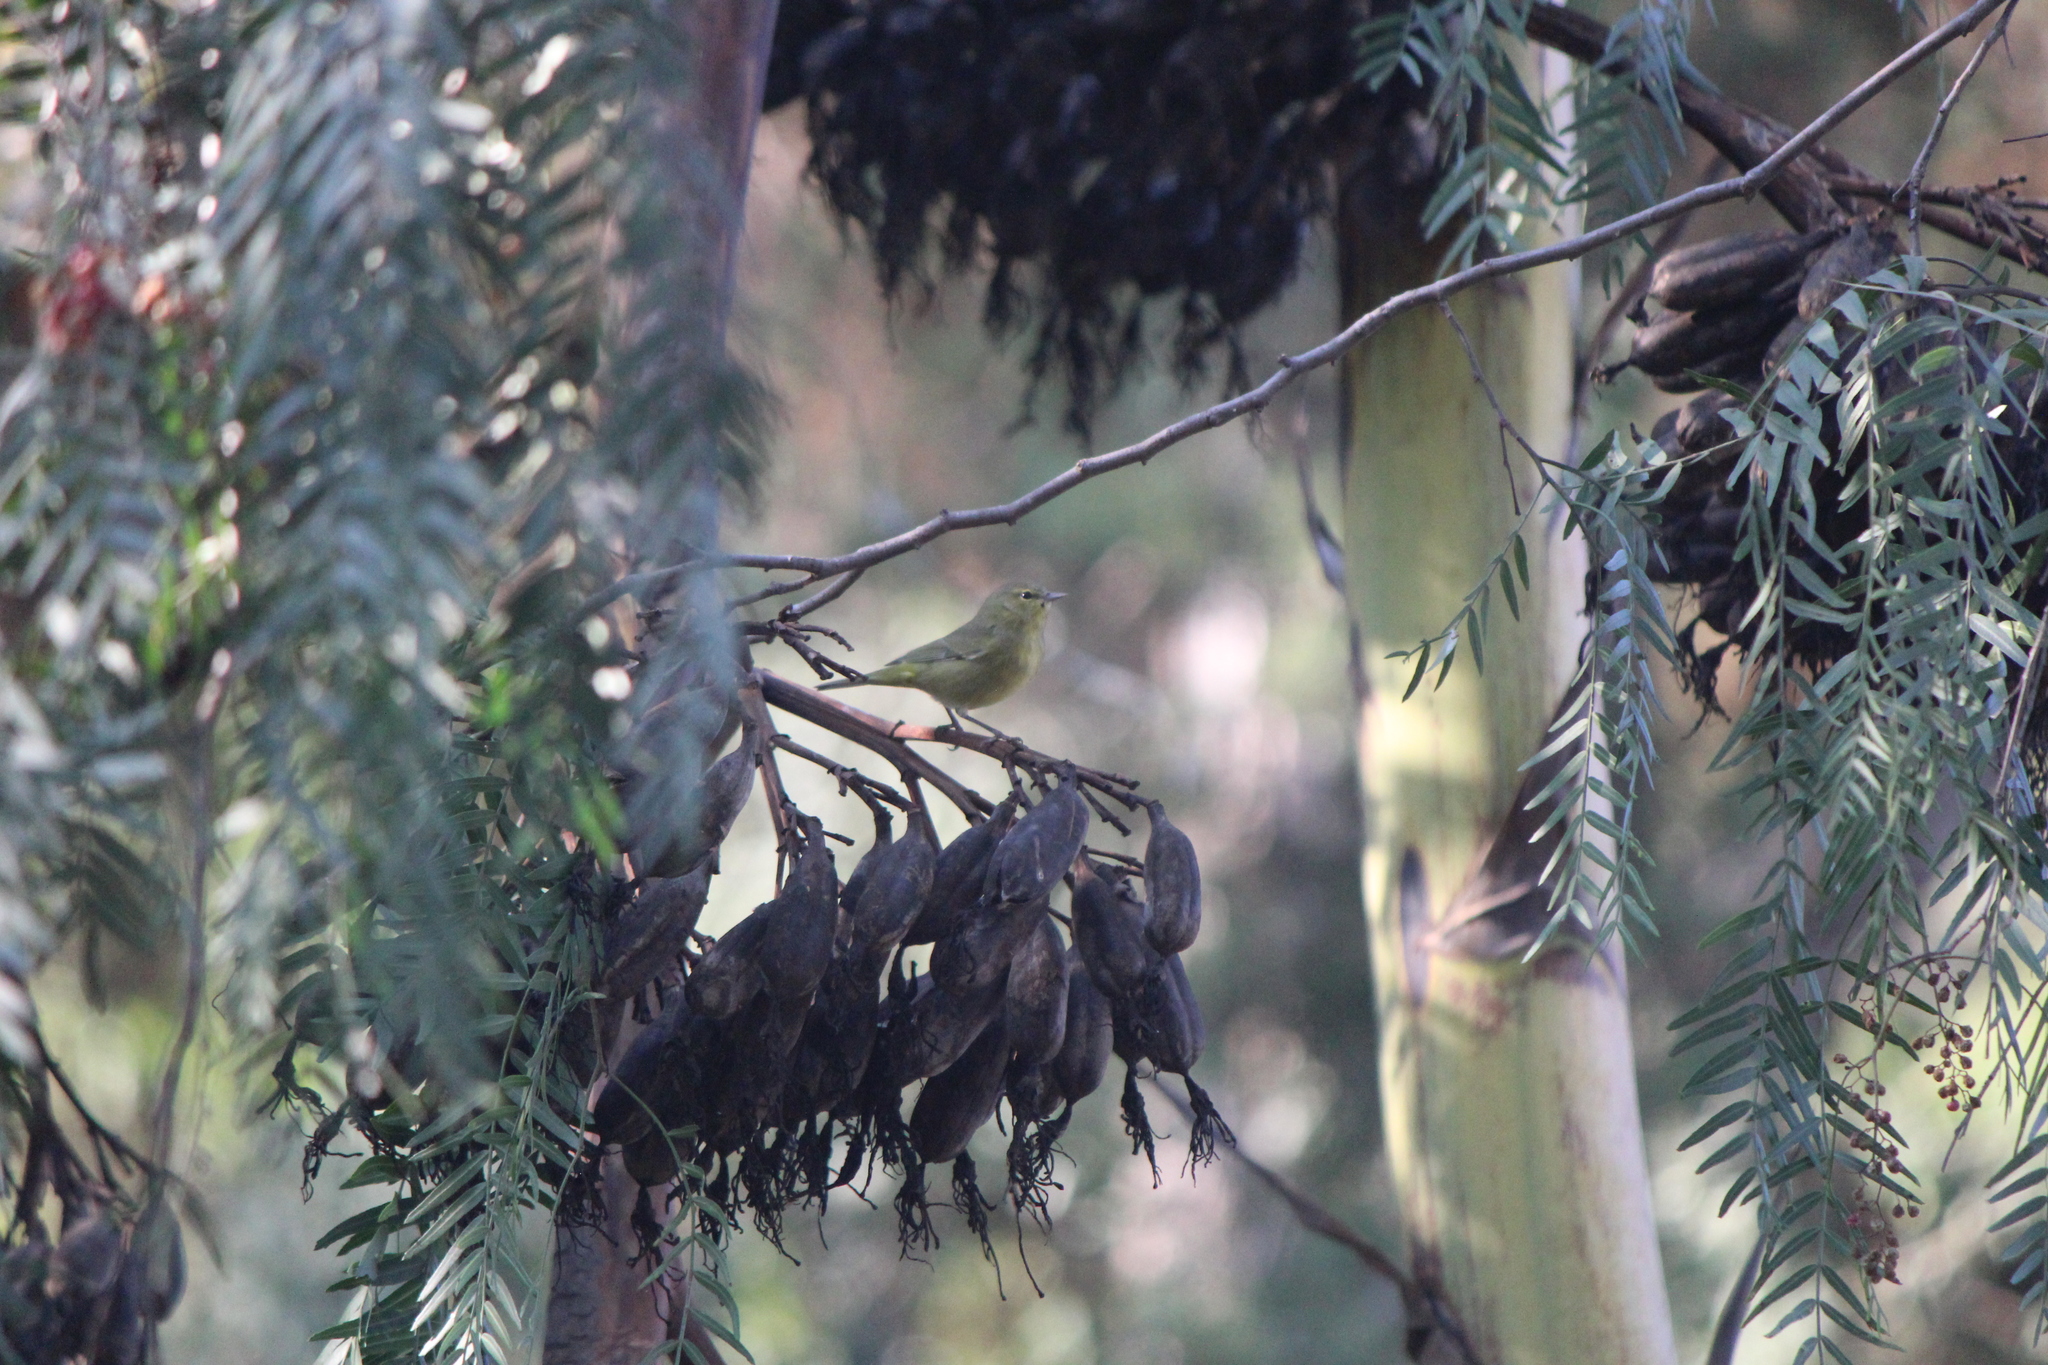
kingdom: Animalia
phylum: Chordata
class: Aves
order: Passeriformes
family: Parulidae
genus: Leiothlypis
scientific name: Leiothlypis celata
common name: Orange-crowned warbler
